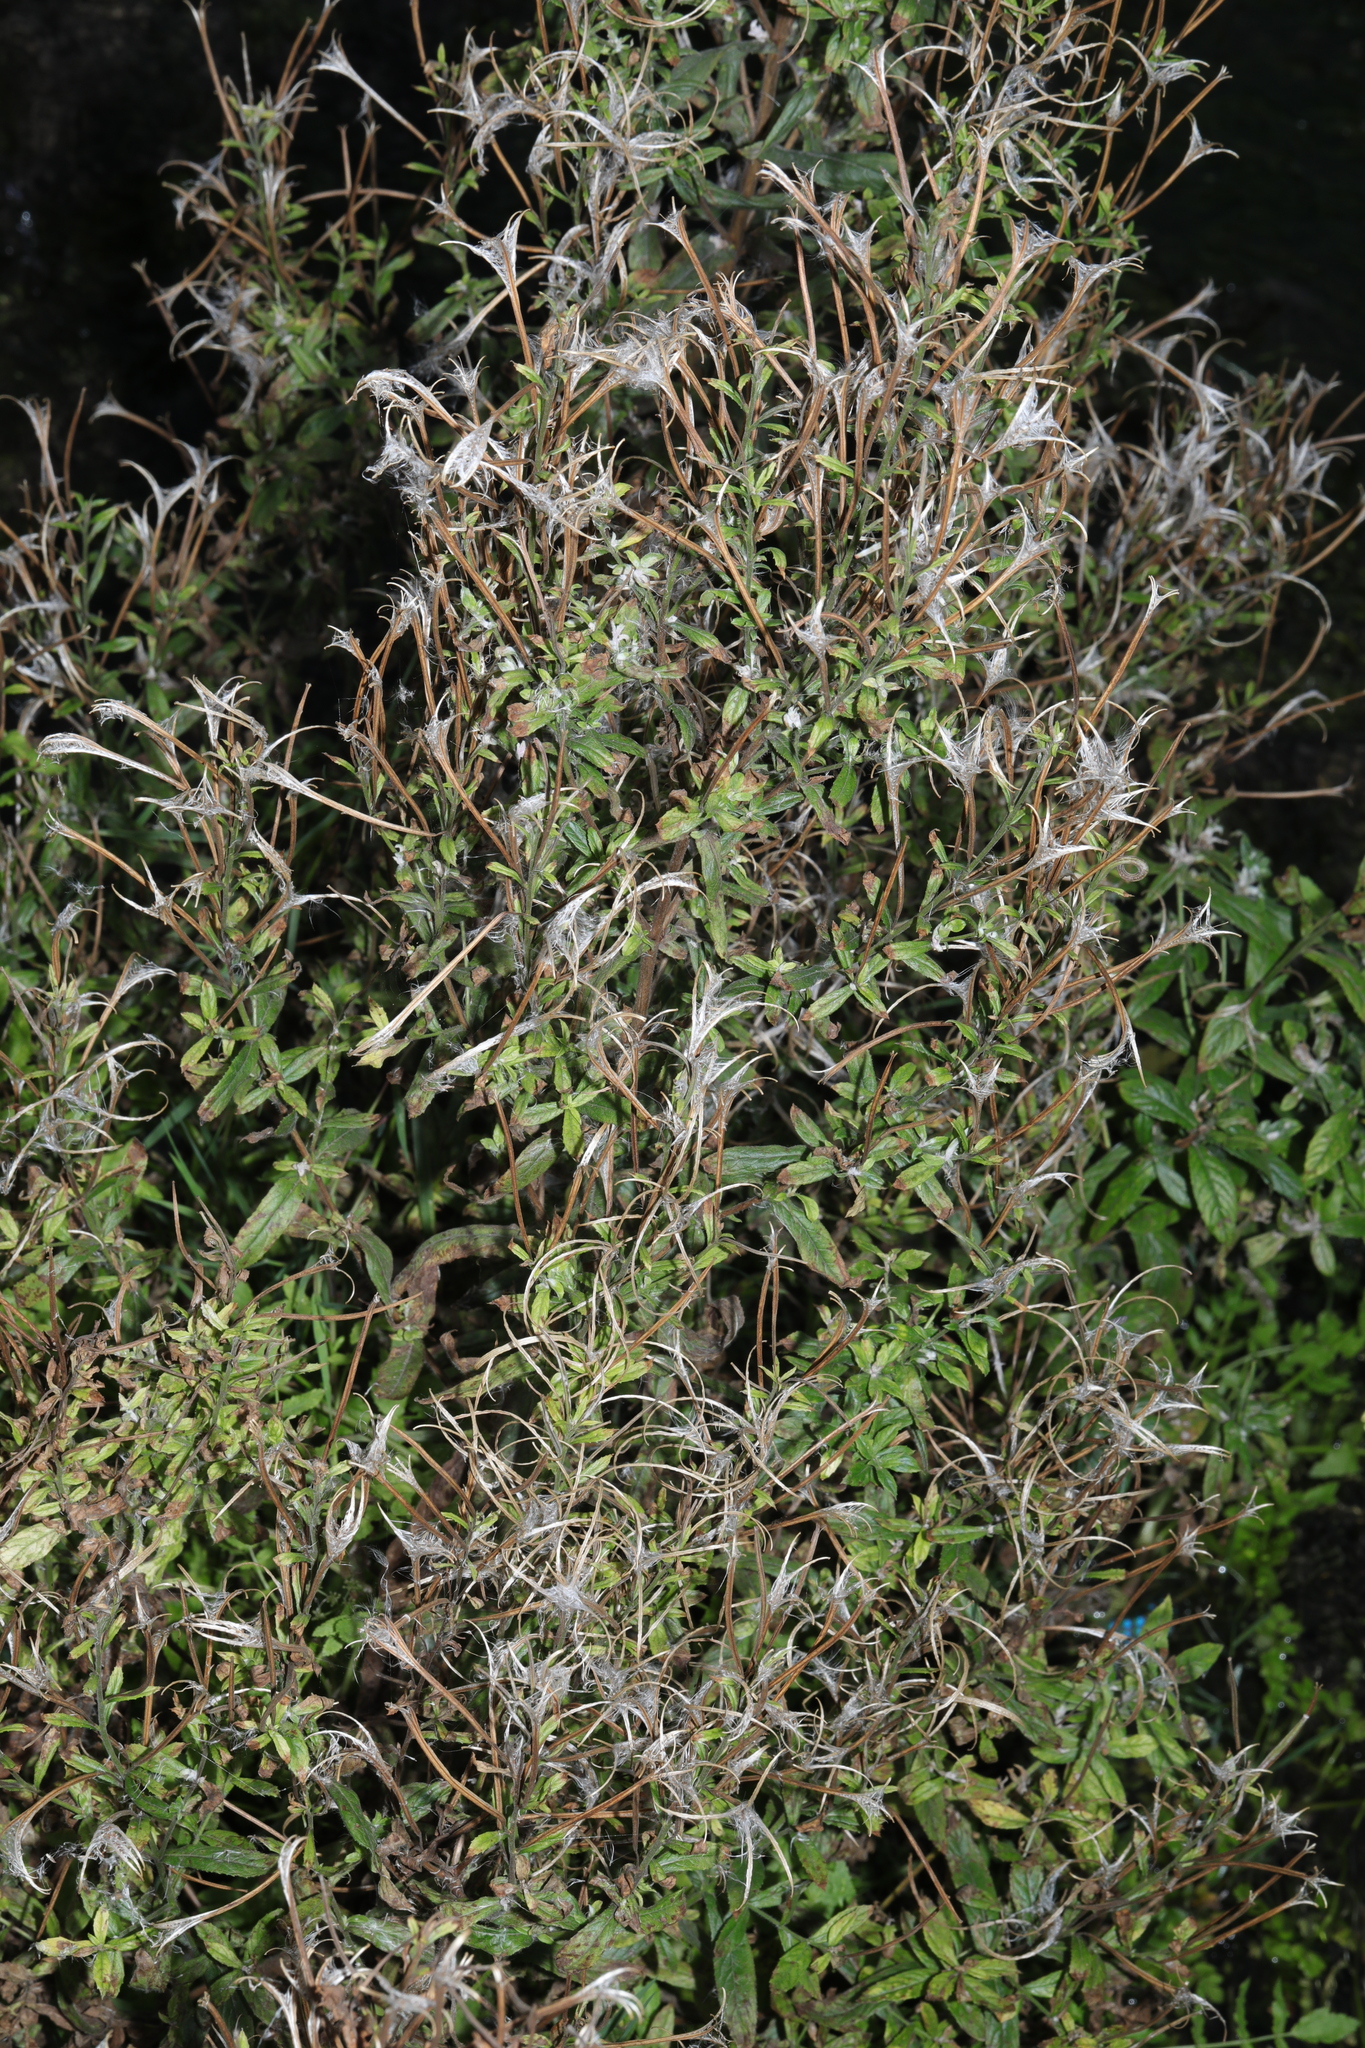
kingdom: Plantae
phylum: Tracheophyta
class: Magnoliopsida
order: Myrtales
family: Onagraceae
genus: Epilobium
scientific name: Epilobium hirsutum
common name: Great willowherb
